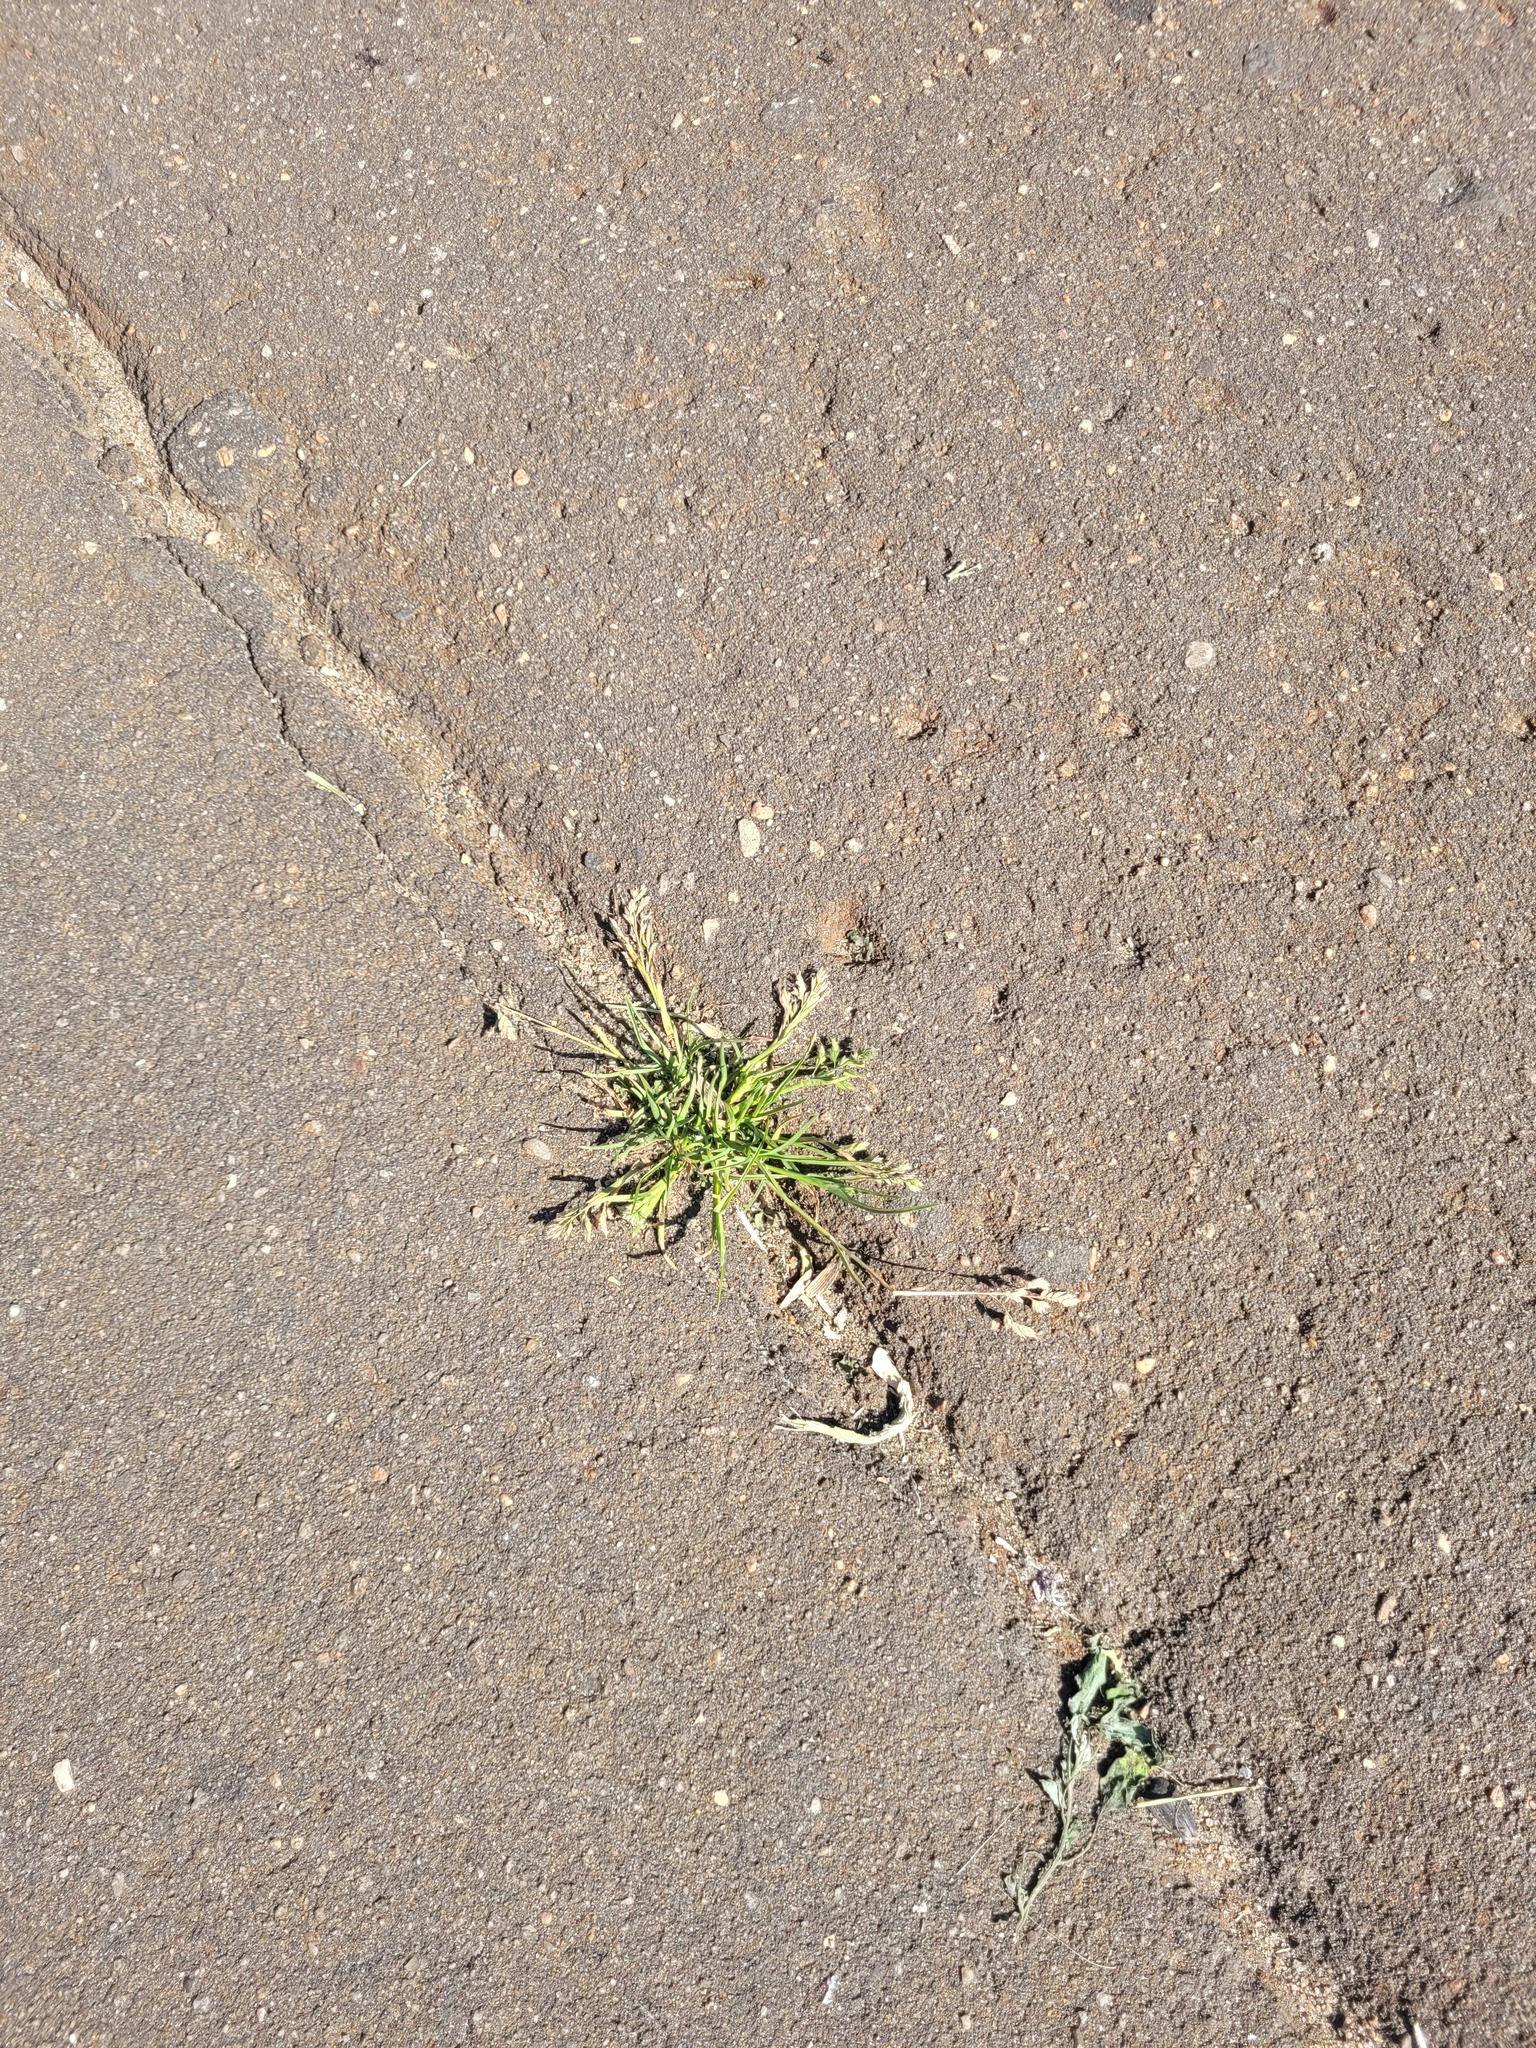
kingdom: Plantae
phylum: Tracheophyta
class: Liliopsida
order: Poales
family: Poaceae
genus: Poa
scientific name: Poa annua
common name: Annual bluegrass
